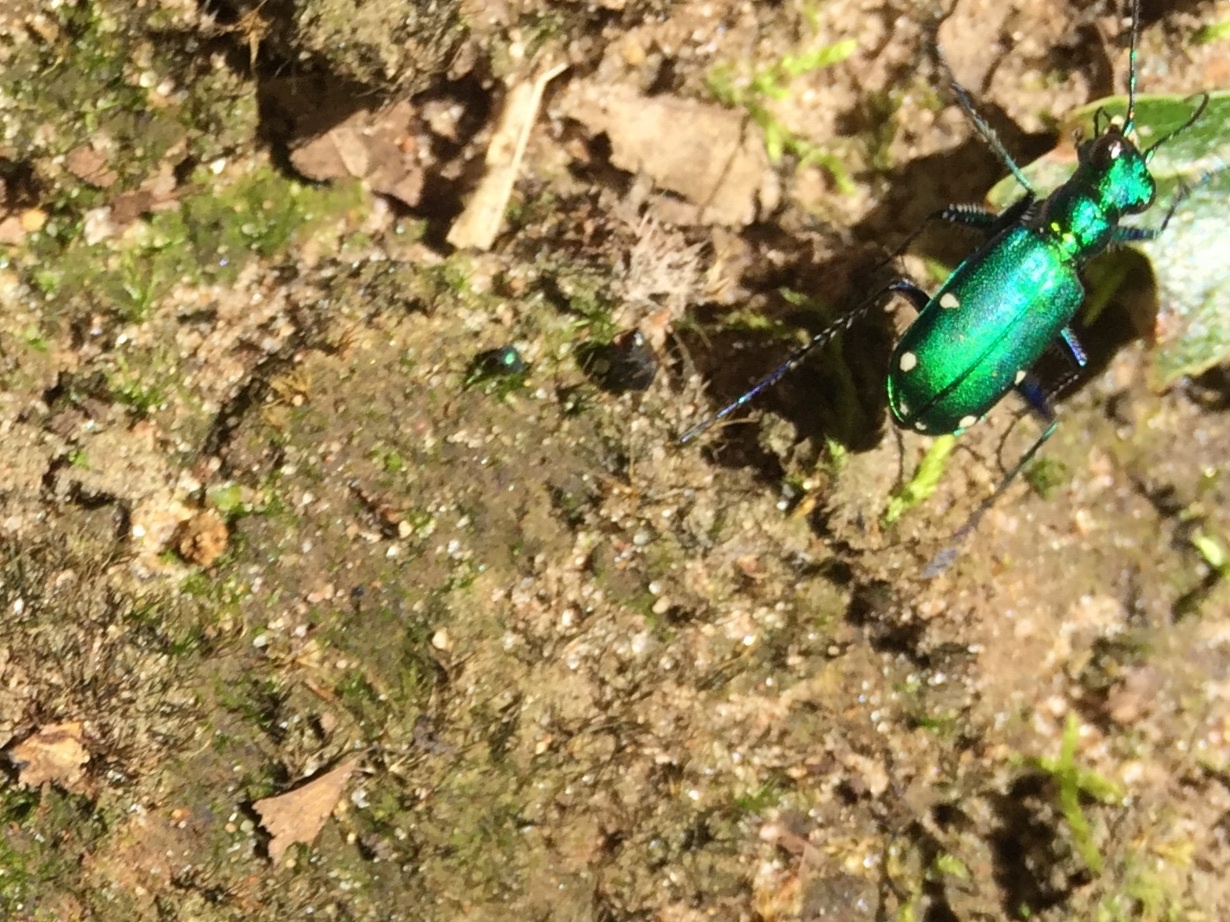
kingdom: Animalia
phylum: Arthropoda
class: Insecta
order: Coleoptera
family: Carabidae
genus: Cicindela
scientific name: Cicindela sexguttata
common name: Six-spotted tiger beetle
